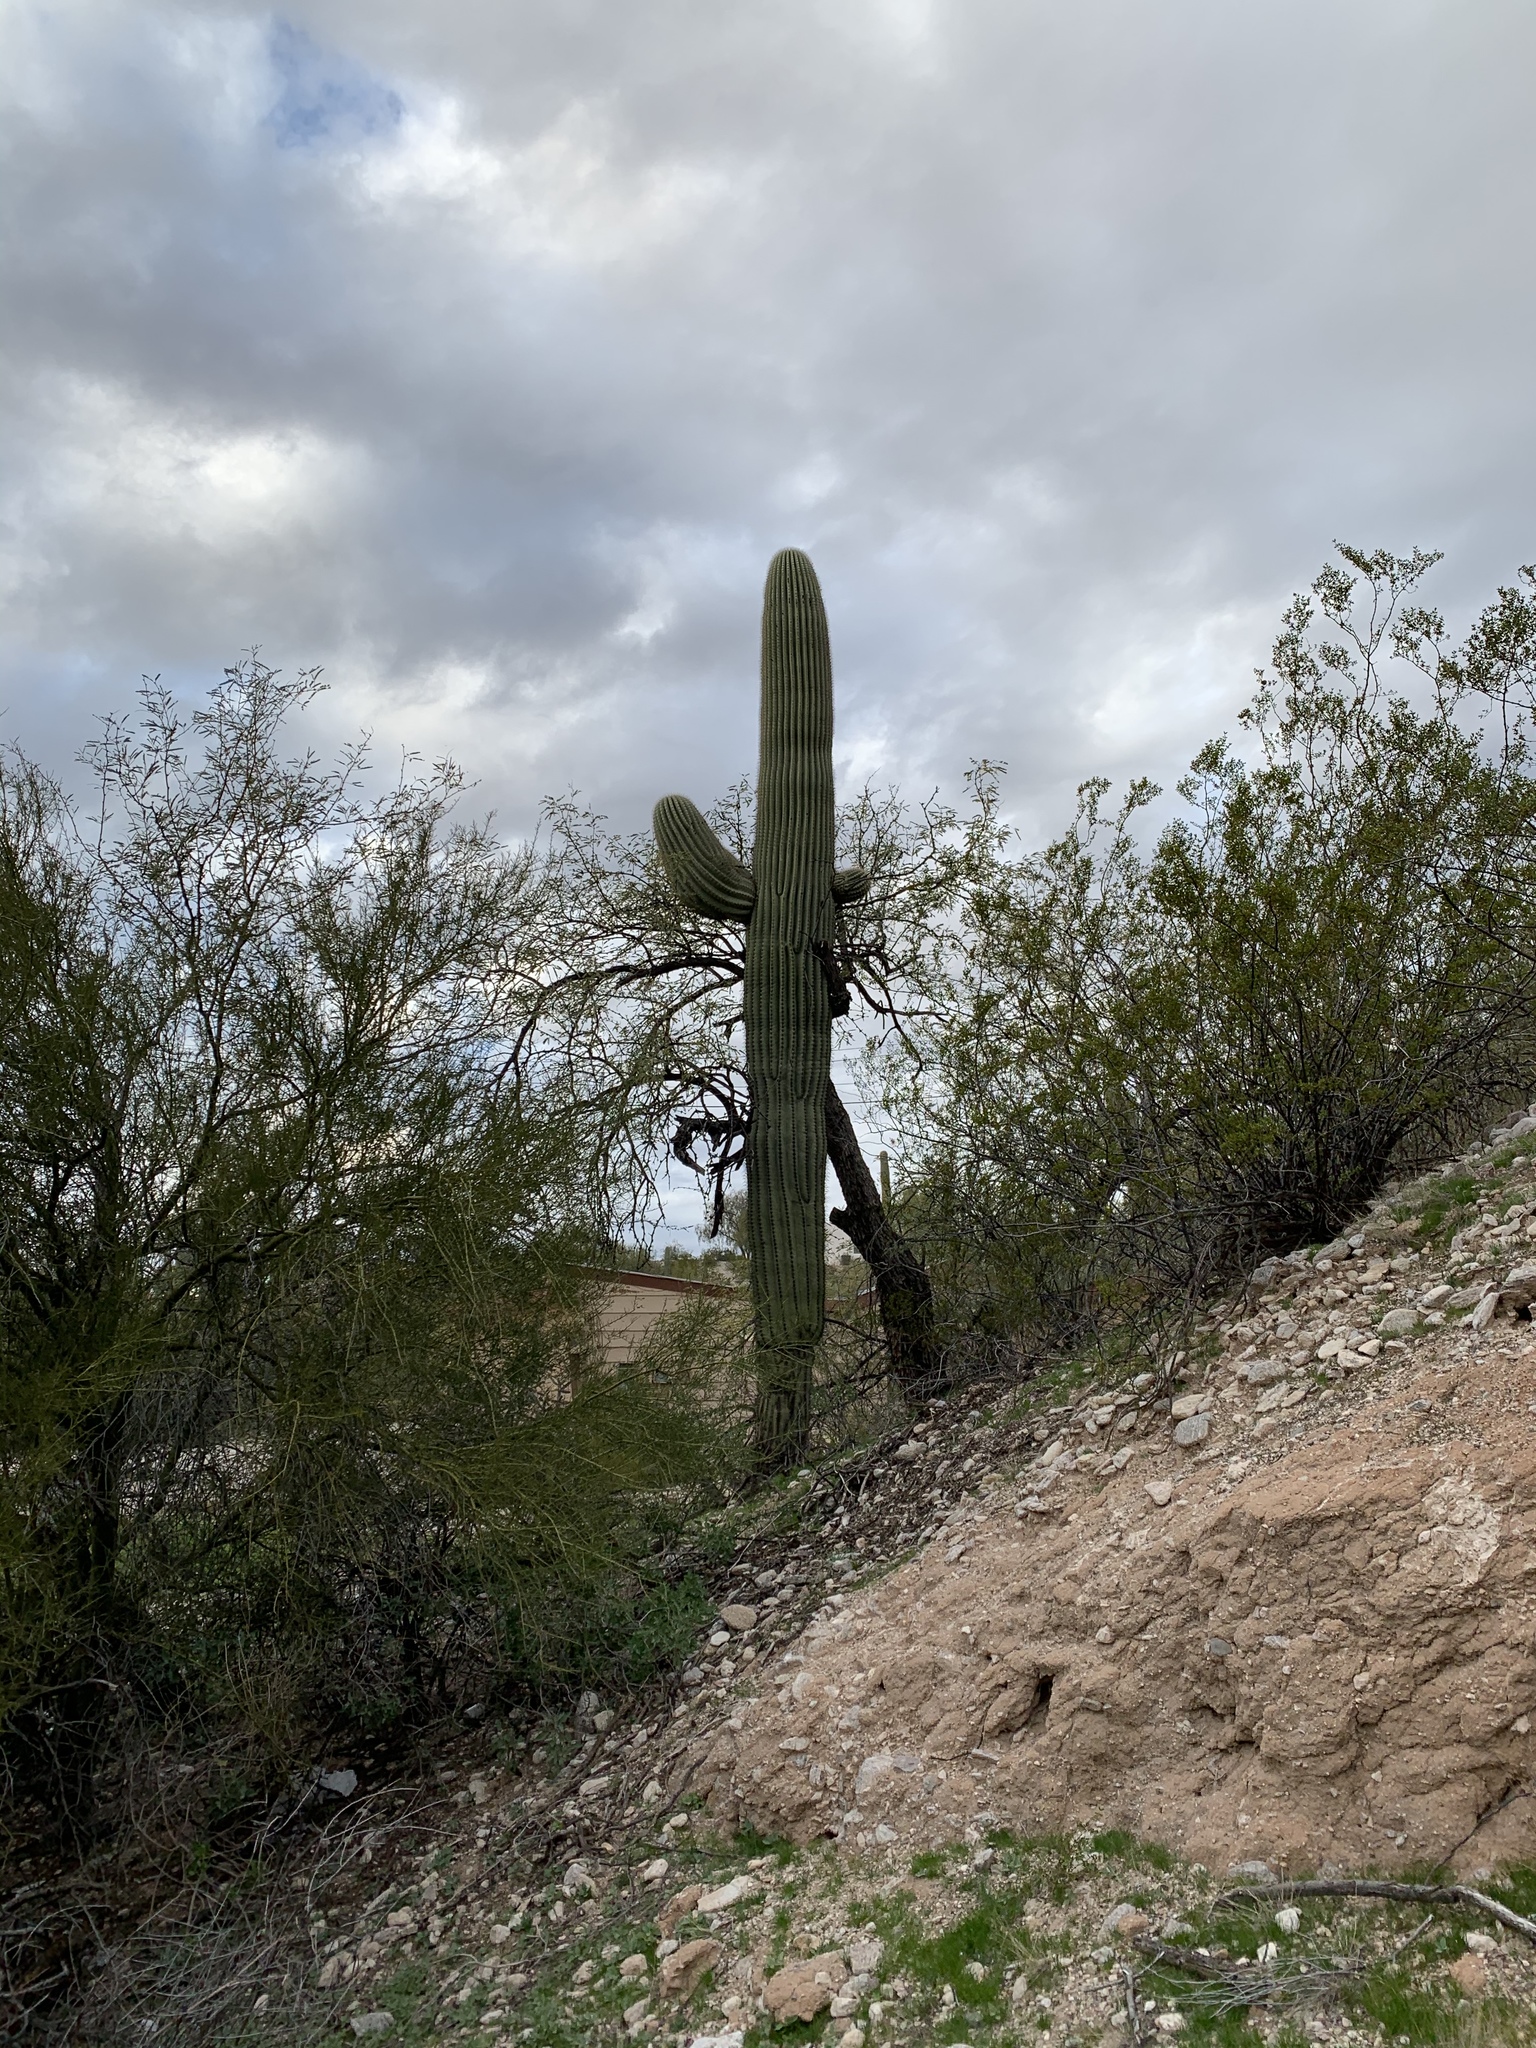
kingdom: Plantae
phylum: Tracheophyta
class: Magnoliopsida
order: Caryophyllales
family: Cactaceae
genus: Carnegiea
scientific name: Carnegiea gigantea
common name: Saguaro
